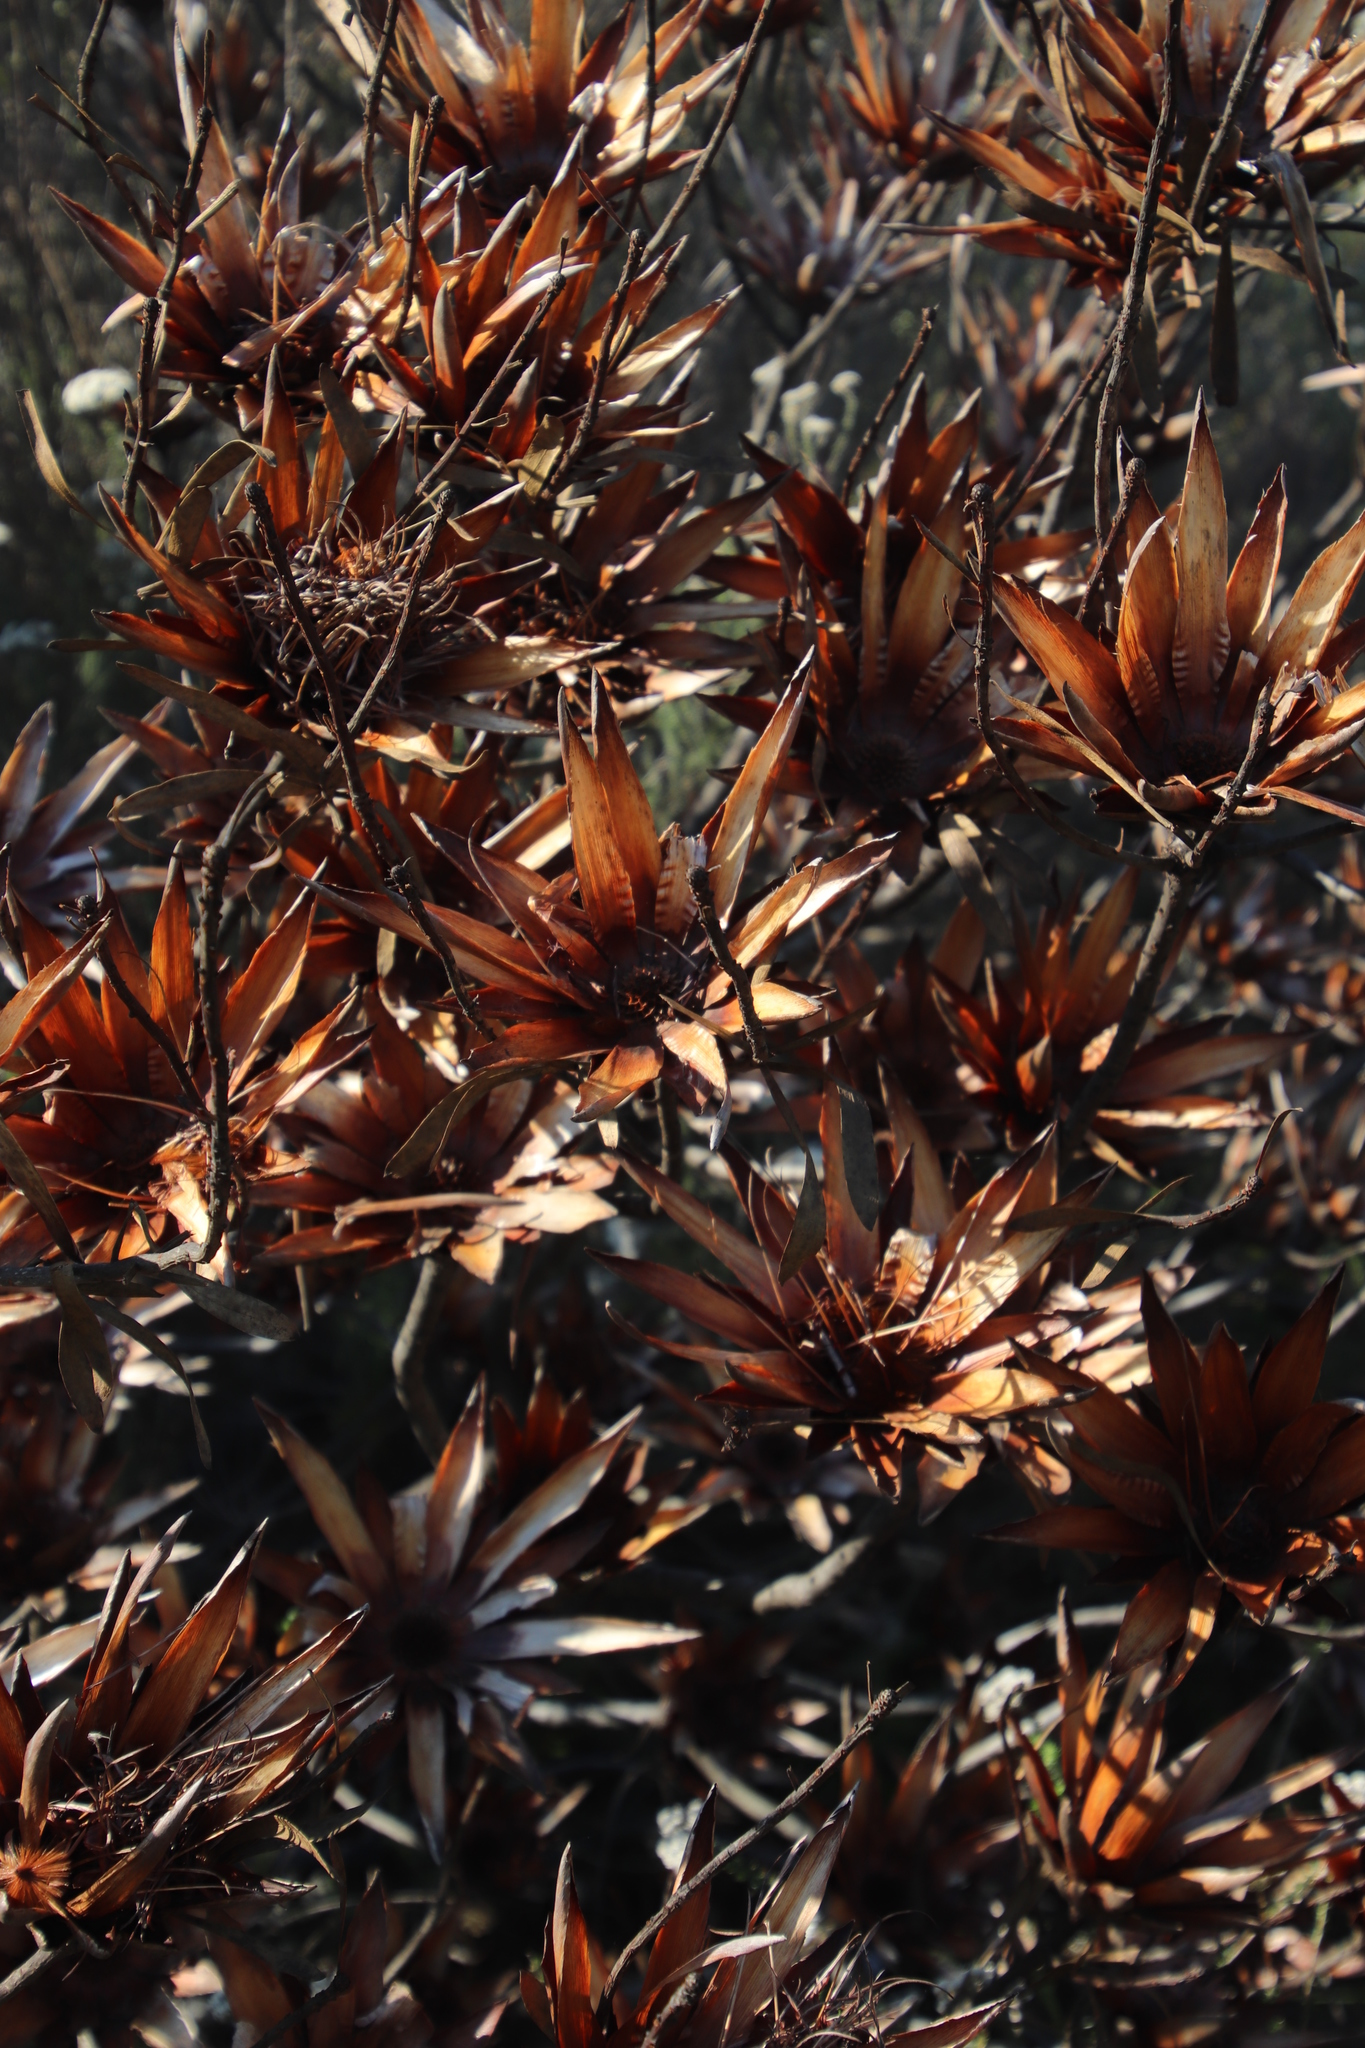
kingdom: Plantae
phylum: Tracheophyta
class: Magnoliopsida
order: Proteales
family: Proteaceae
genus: Protea
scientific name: Protea repens
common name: Sugarbush
